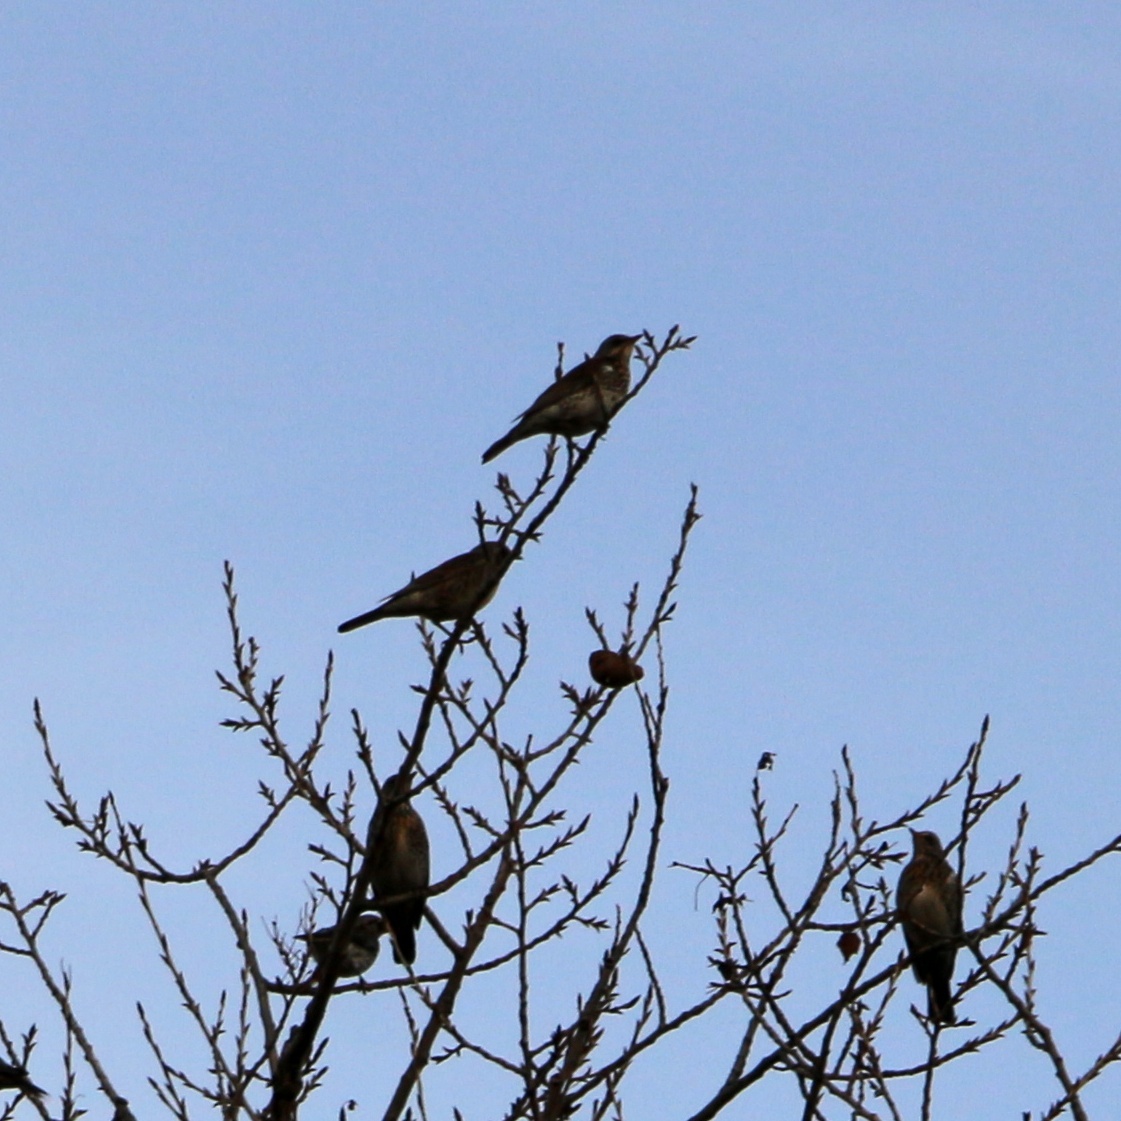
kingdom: Animalia
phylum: Chordata
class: Aves
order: Passeriformes
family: Turdidae
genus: Turdus
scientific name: Turdus pilaris
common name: Fieldfare
